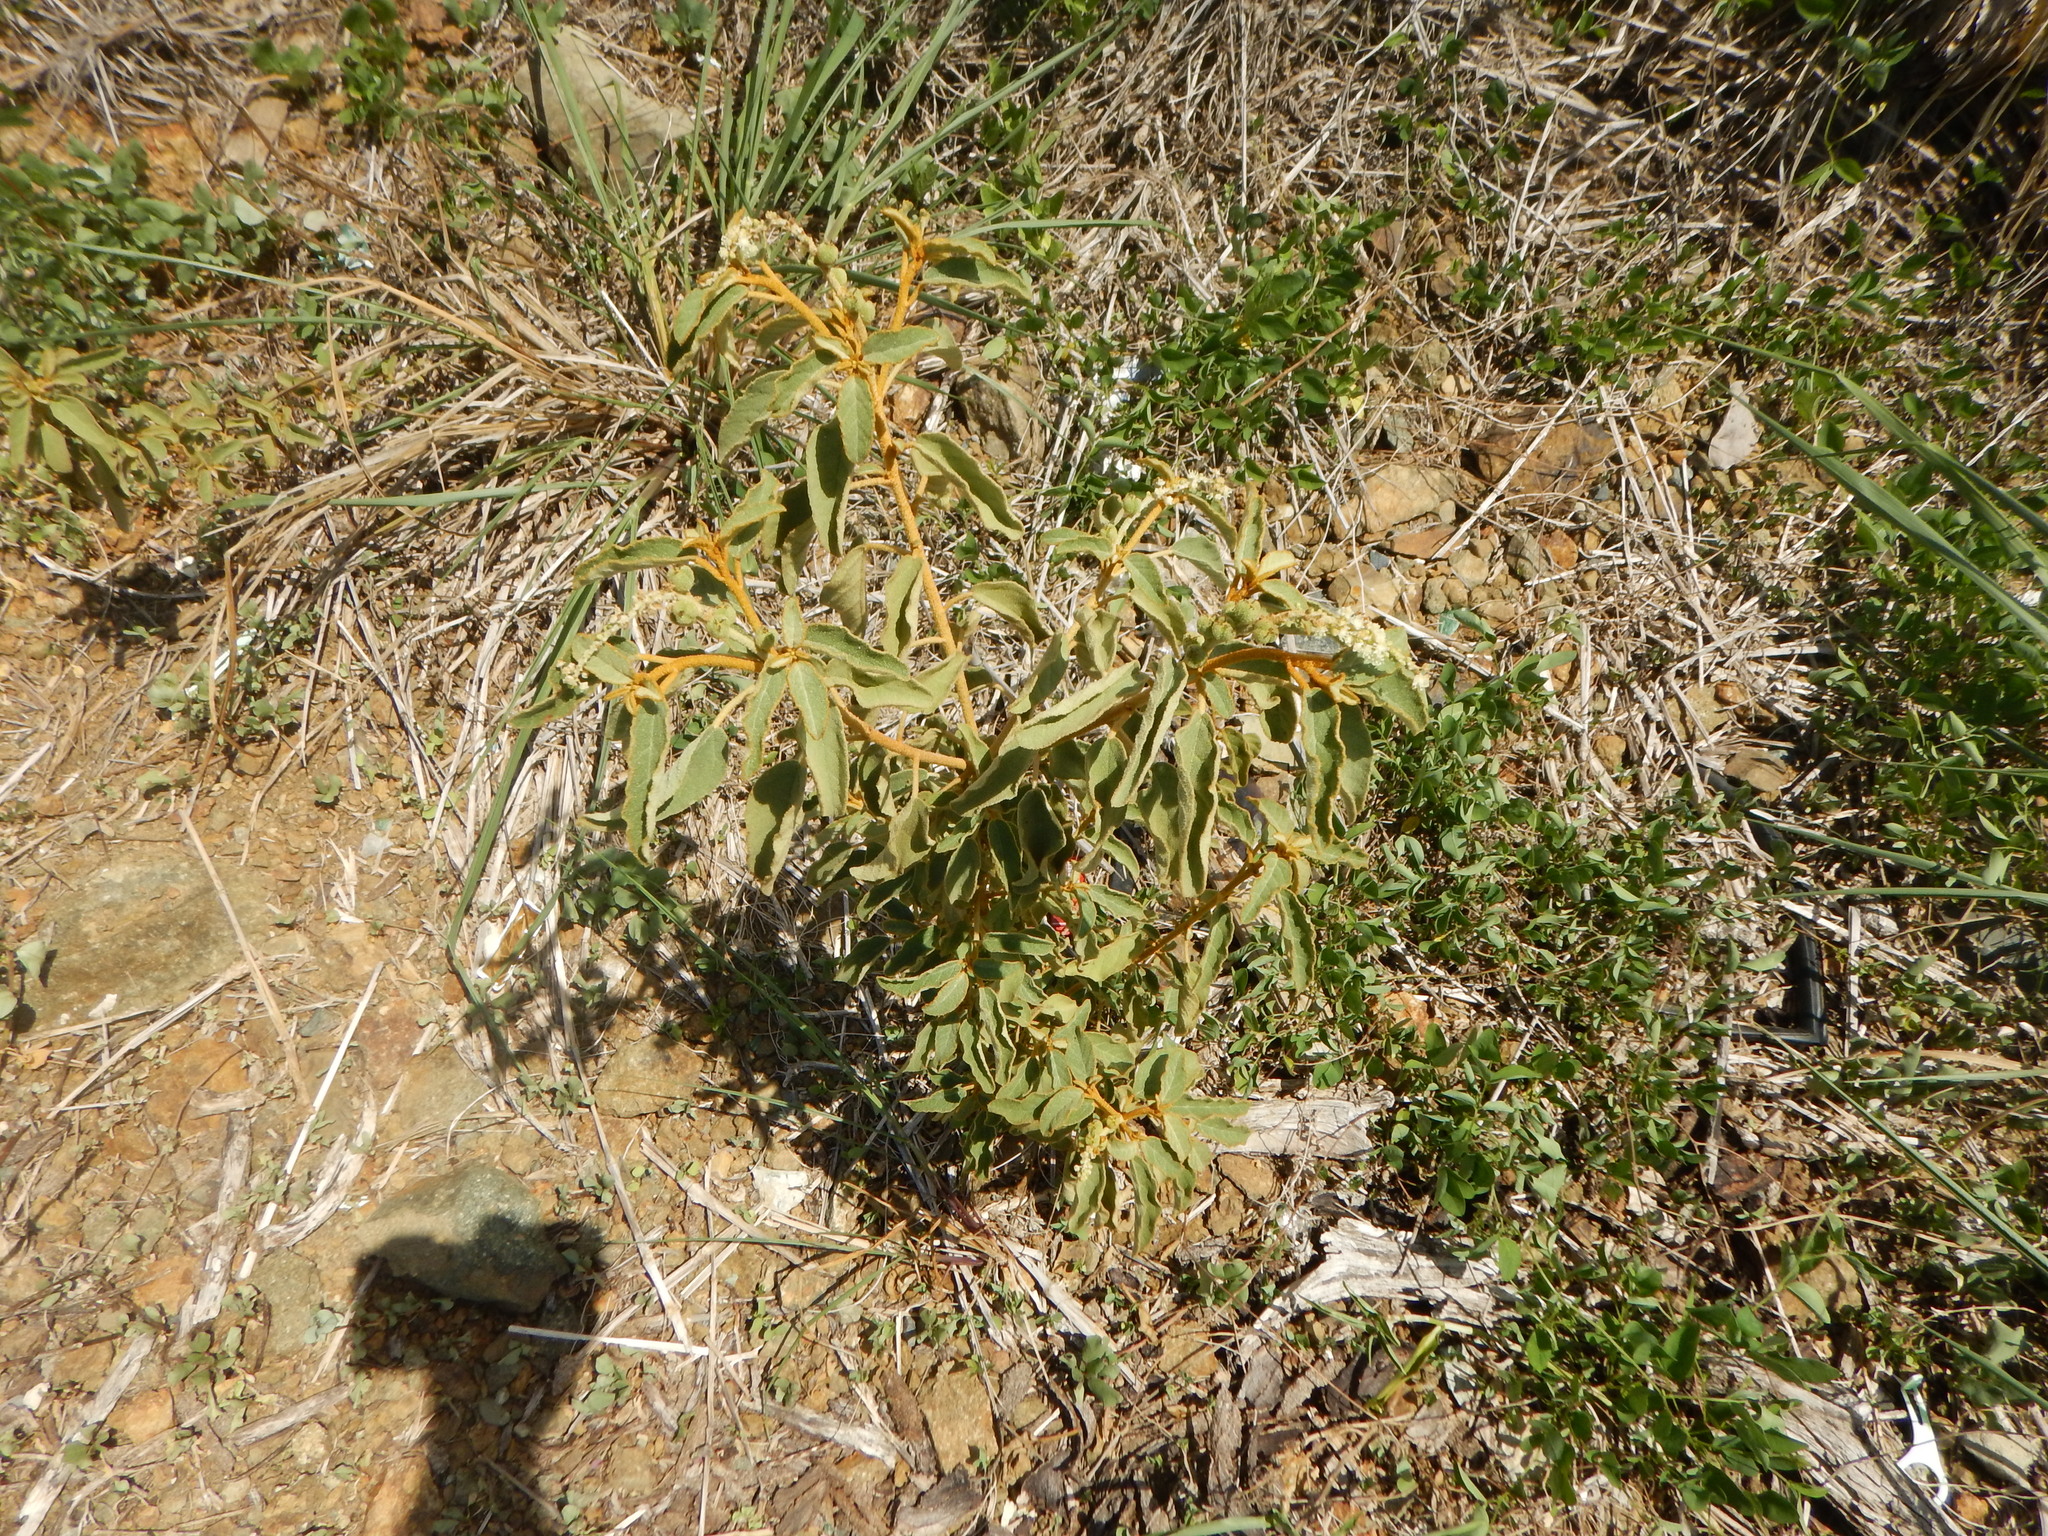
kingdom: Plantae
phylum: Tracheophyta
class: Magnoliopsida
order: Malpighiales
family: Euphorbiaceae
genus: Croton
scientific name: Croton flavens
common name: Yellow balsam
